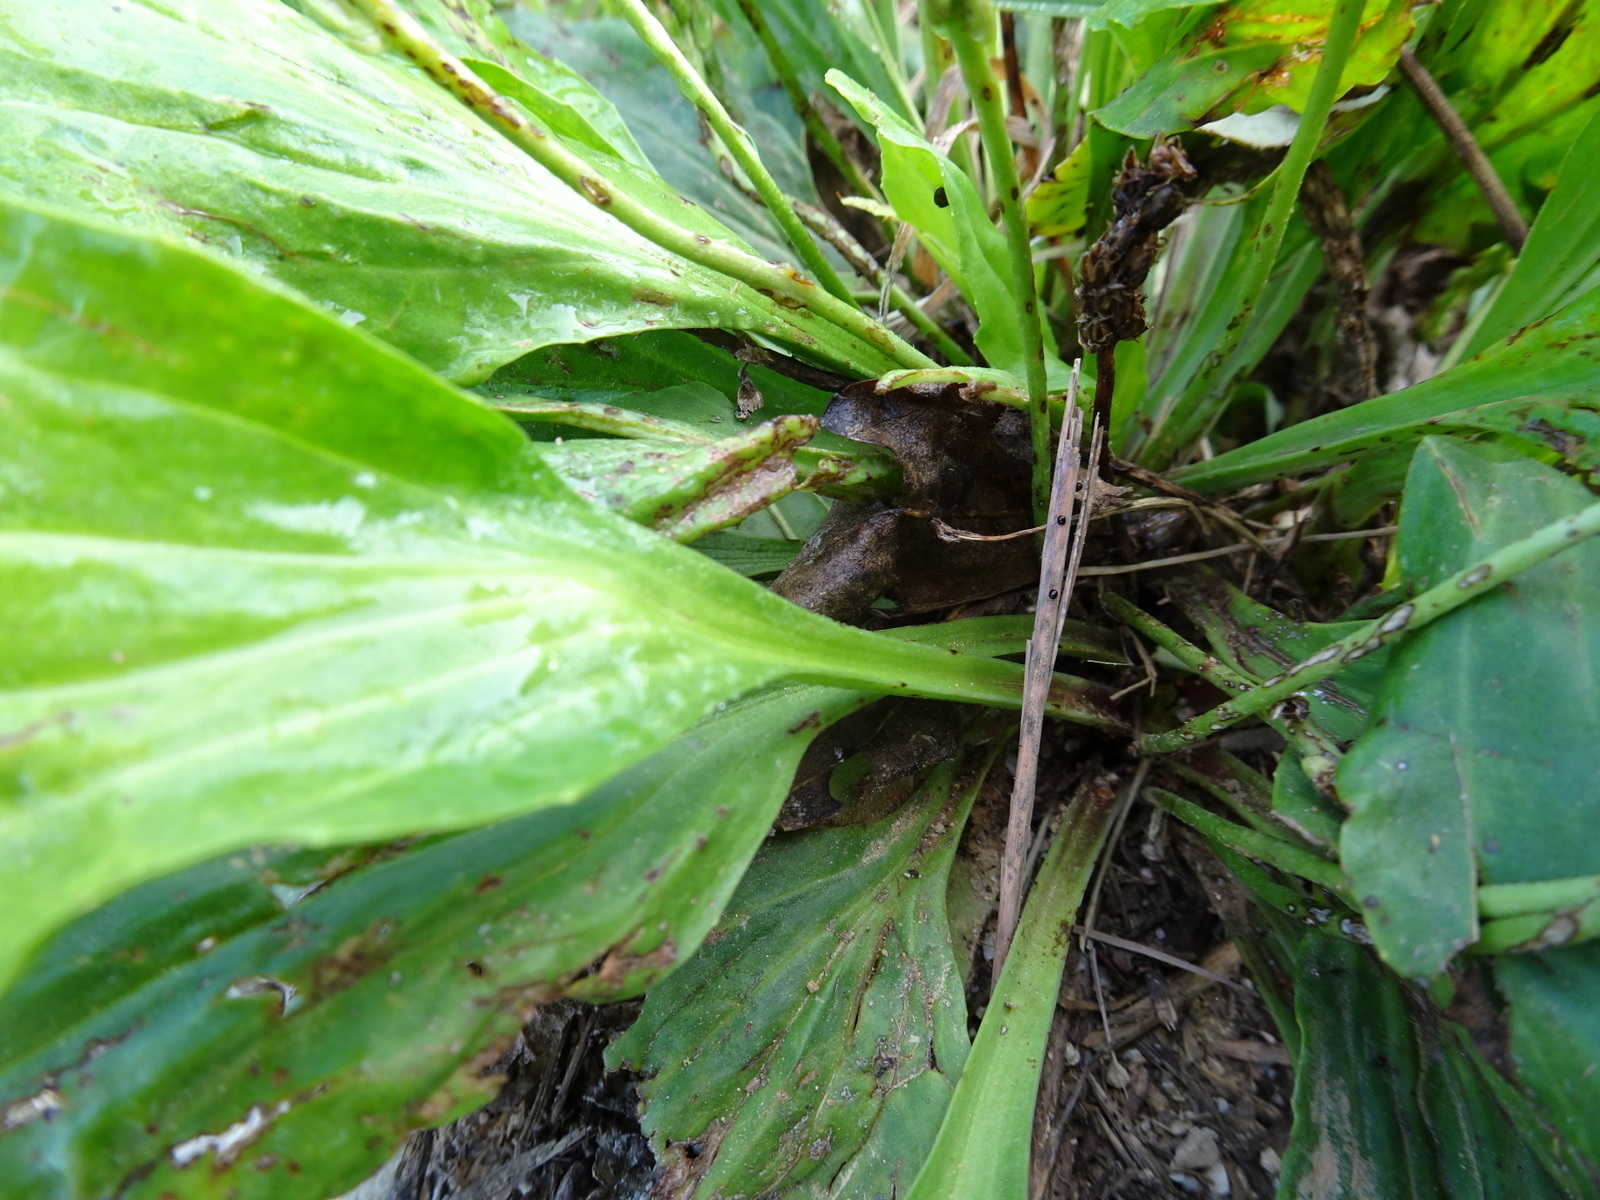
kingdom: Plantae
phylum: Tracheophyta
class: Magnoliopsida
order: Lamiales
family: Plantaginaceae
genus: Plantago
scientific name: Plantago major
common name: Common plantain
